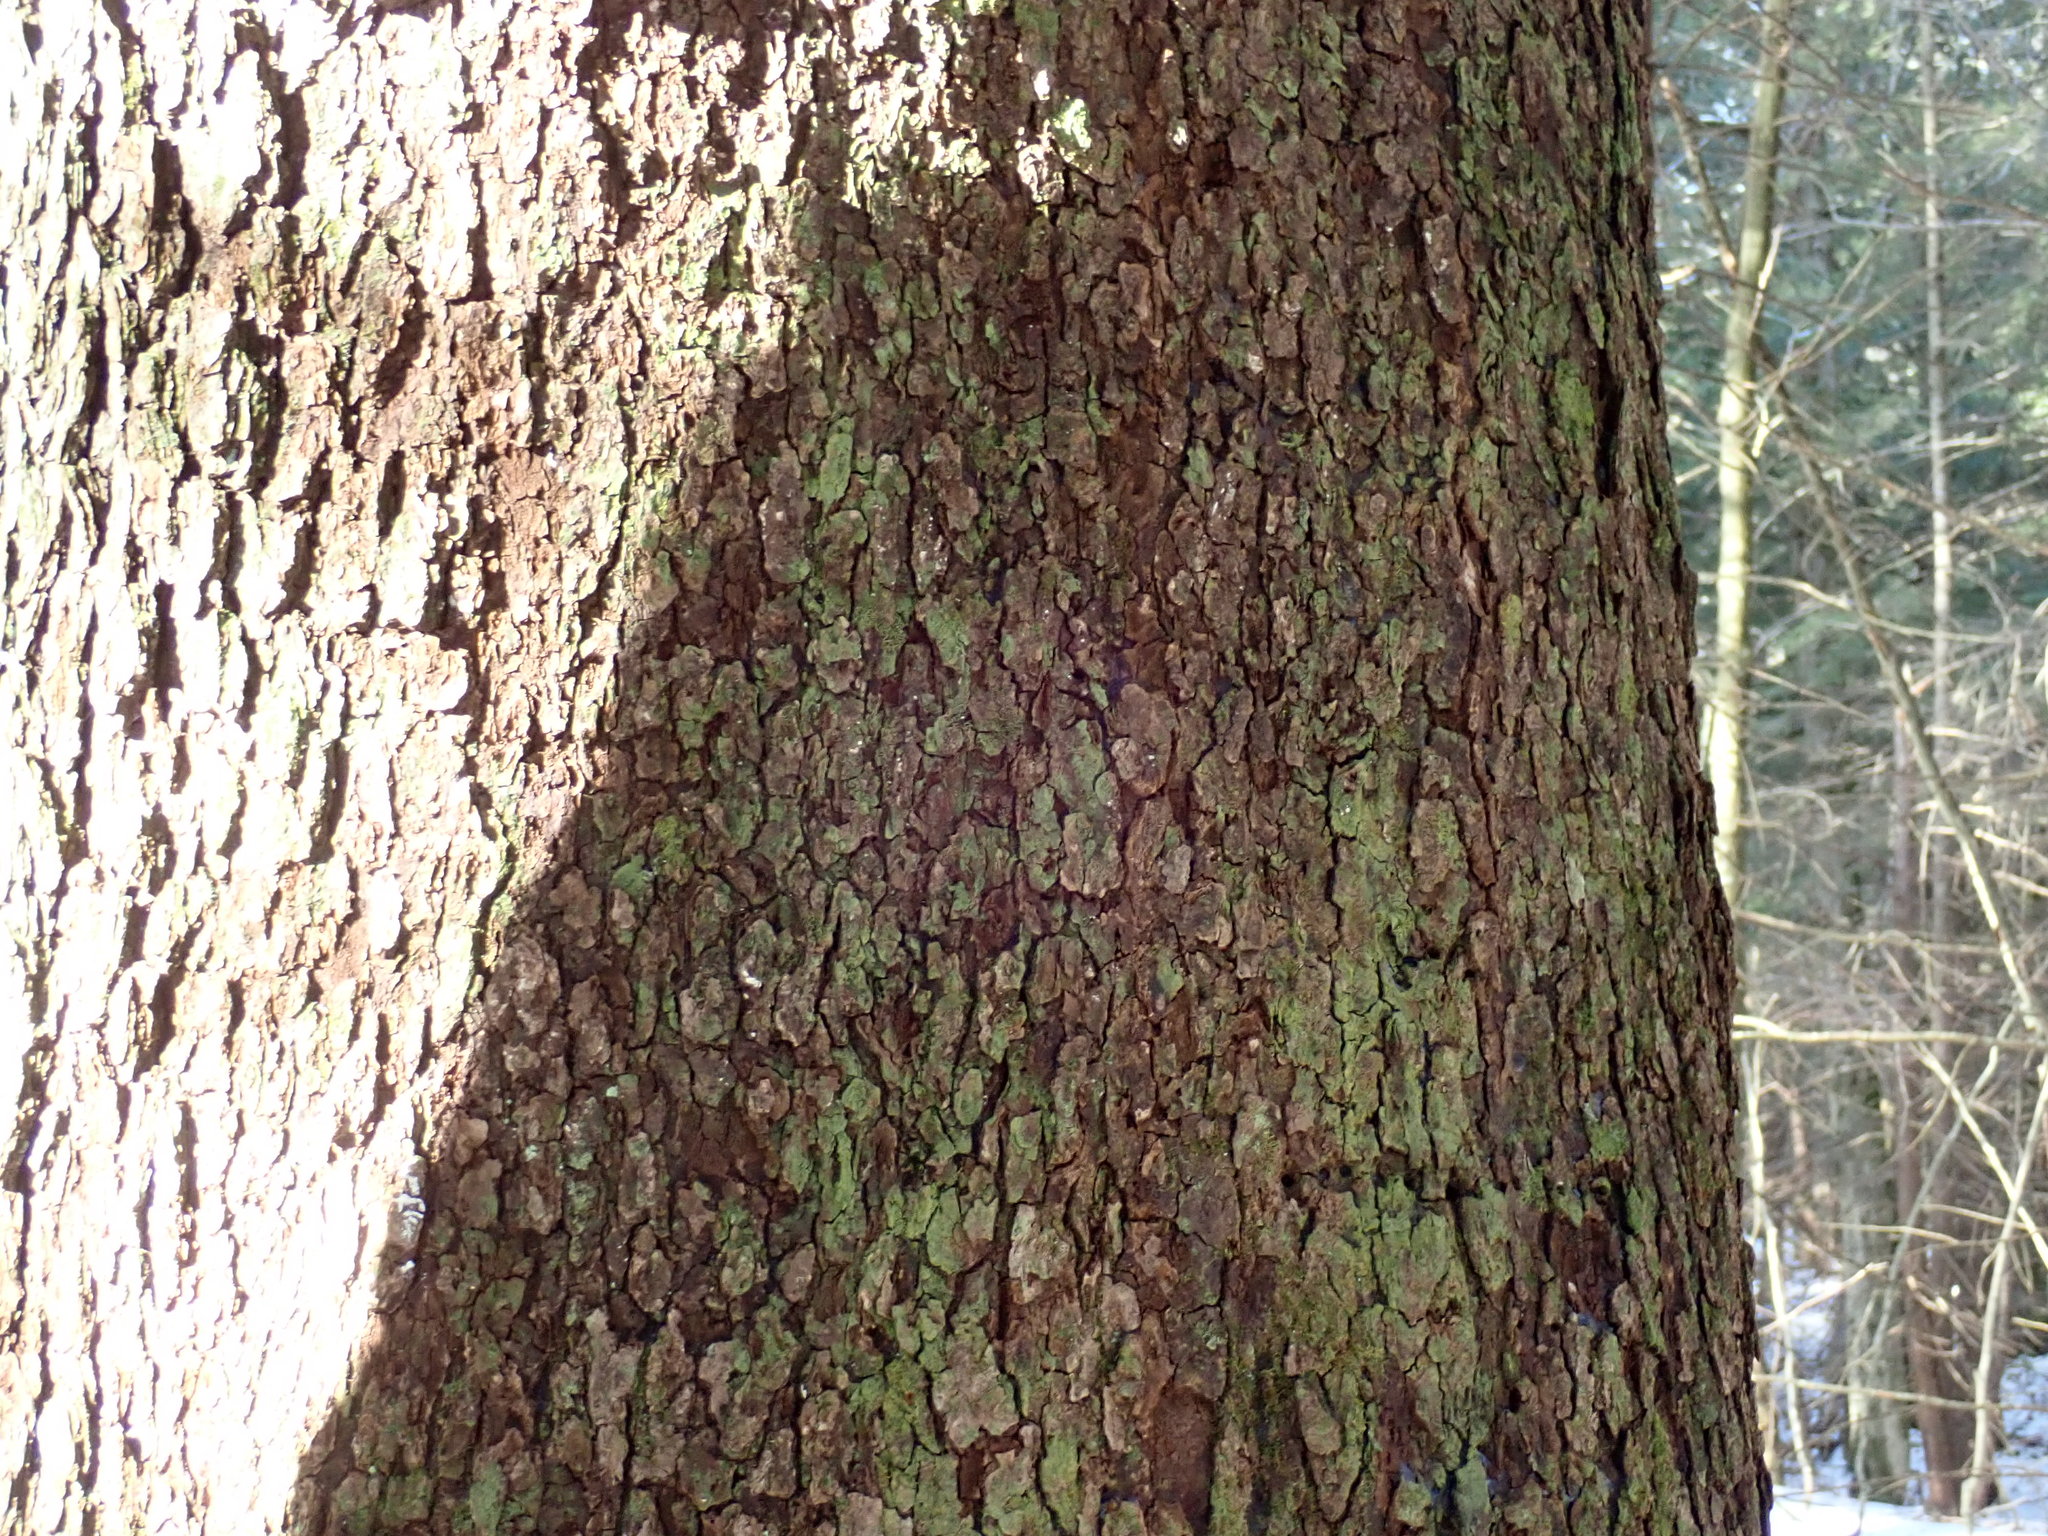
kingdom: Plantae
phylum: Tracheophyta
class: Magnoliopsida
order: Rosales
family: Rosaceae
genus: Prunus
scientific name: Prunus serotina
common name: Black cherry
